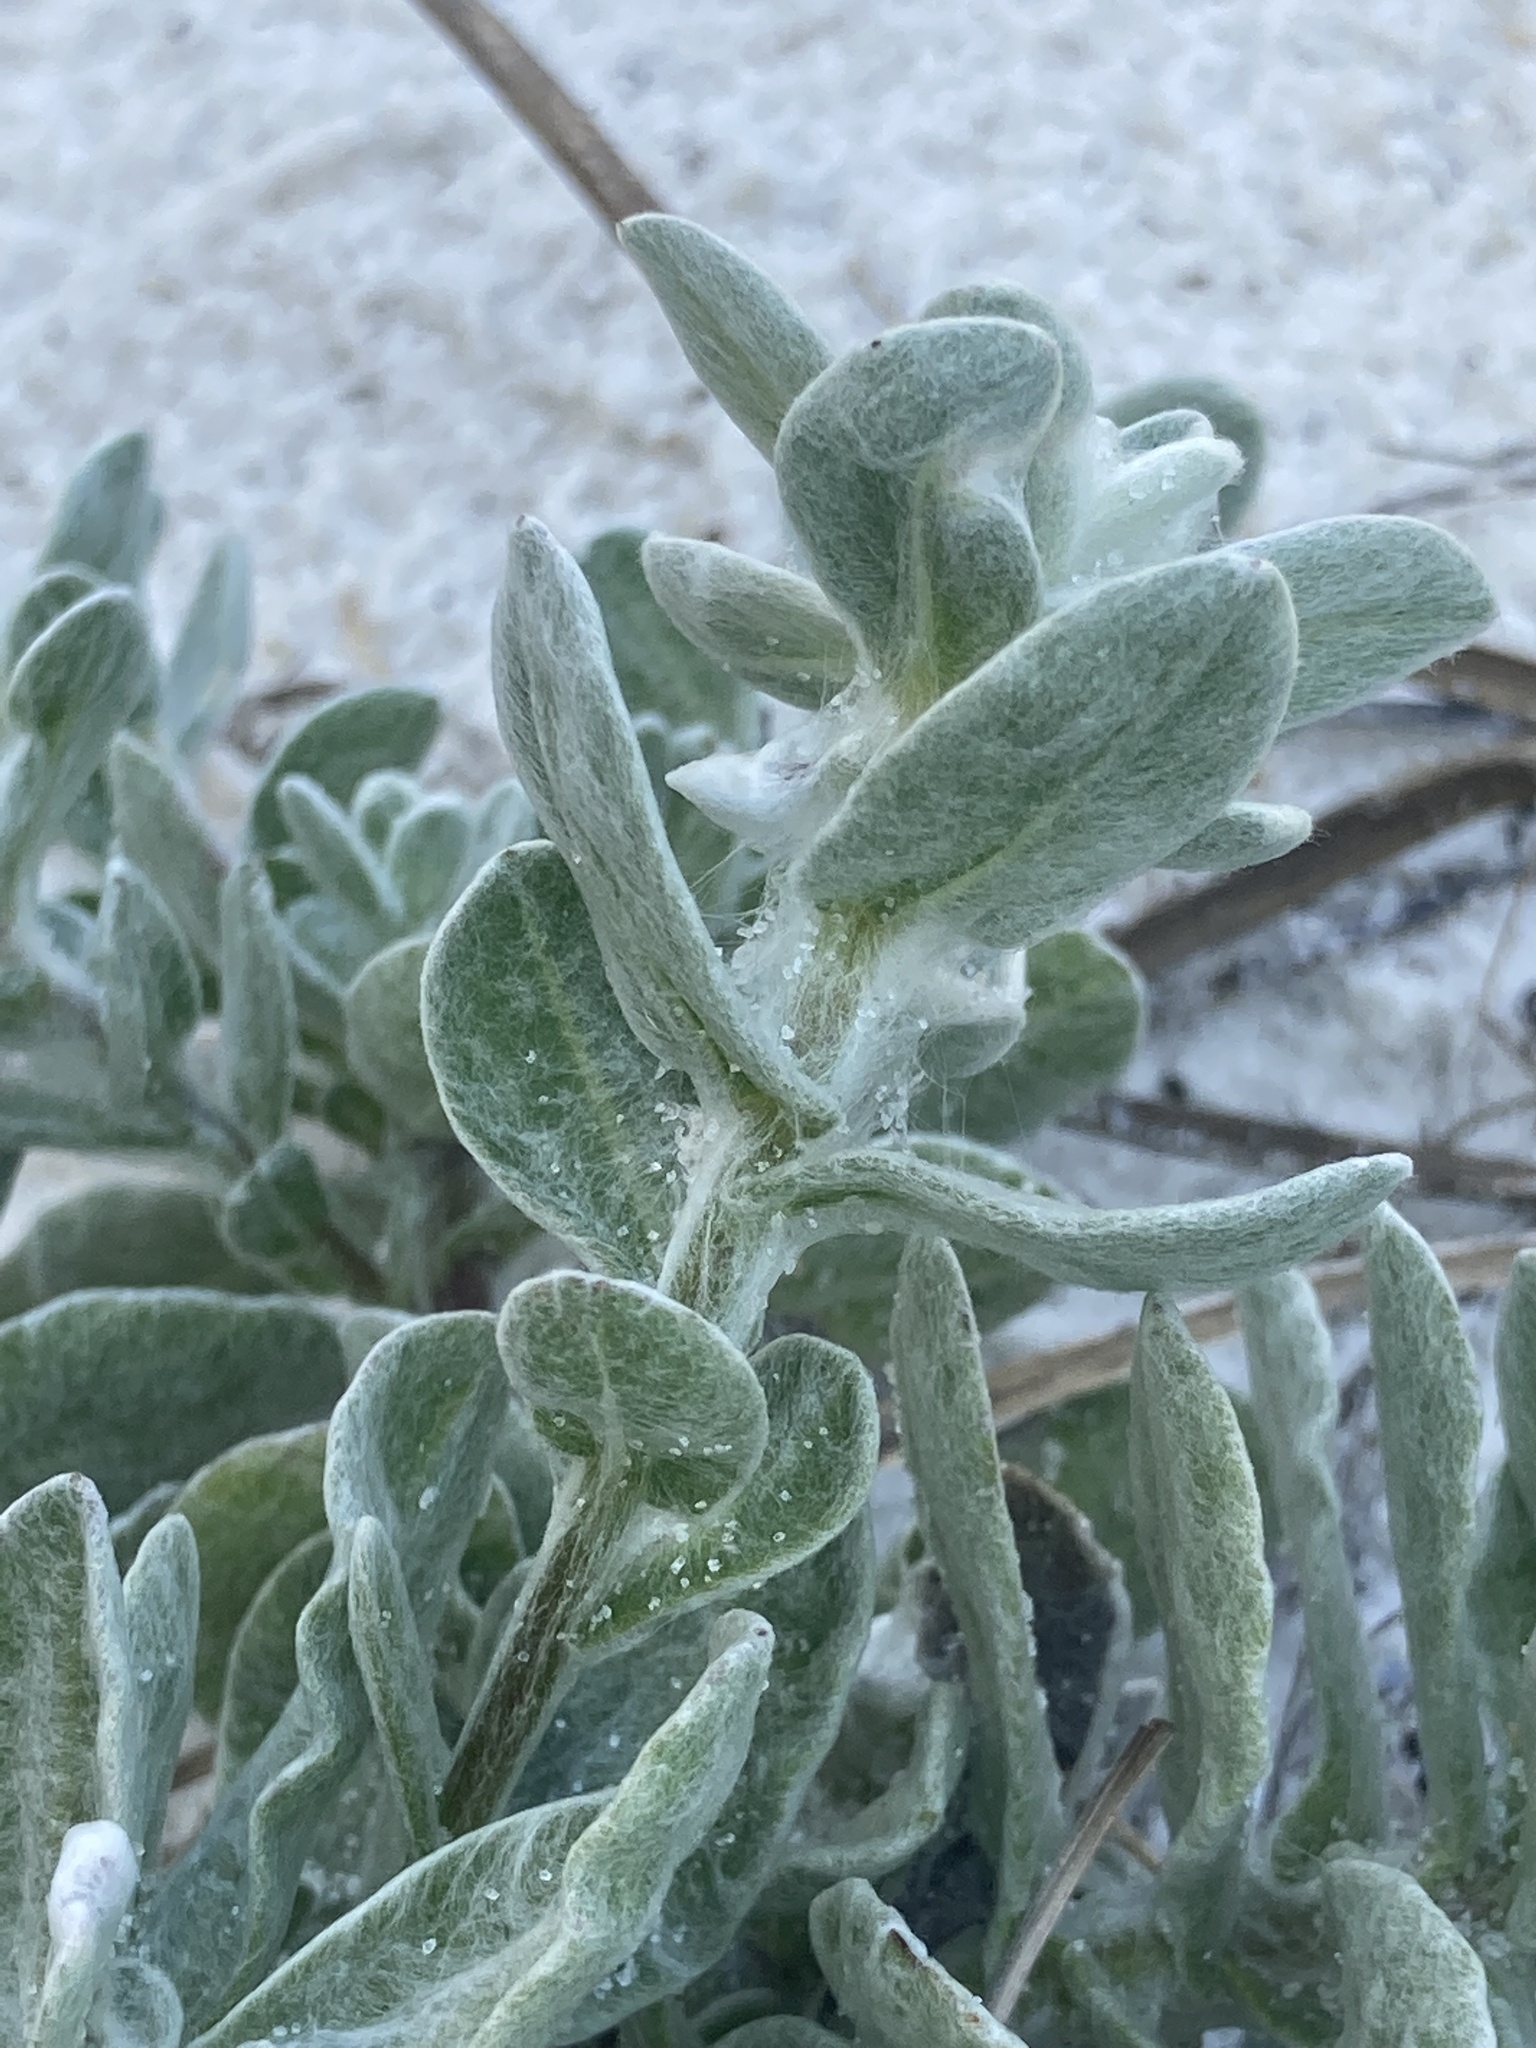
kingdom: Plantae
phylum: Tracheophyta
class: Magnoliopsida
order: Asterales
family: Asteraceae
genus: Chrysopsis
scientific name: Chrysopsis godfreyi
